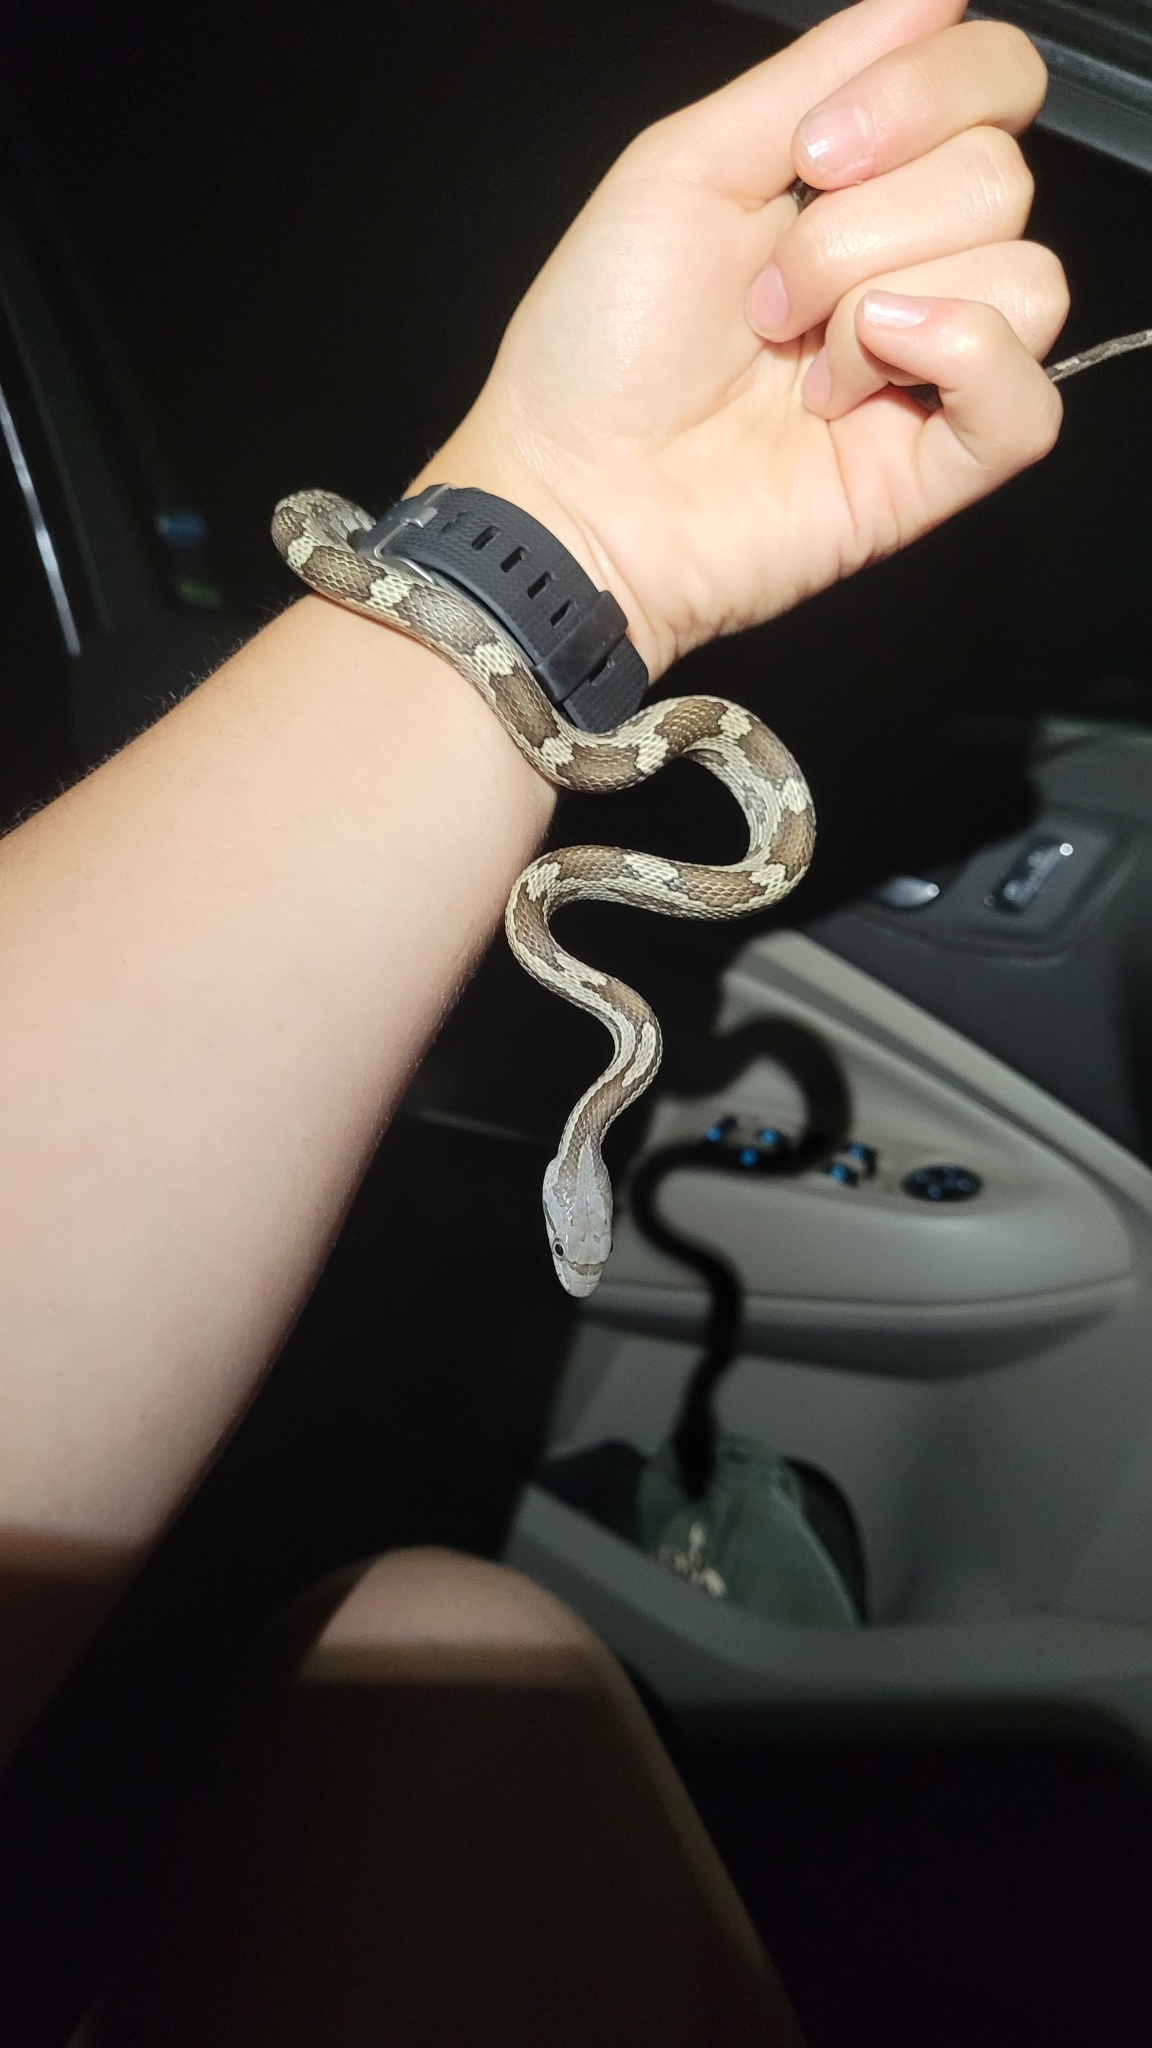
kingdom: Animalia
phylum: Chordata
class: Squamata
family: Colubridae
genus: Pantherophis
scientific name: Pantherophis spiloides
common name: Gray rat snake
